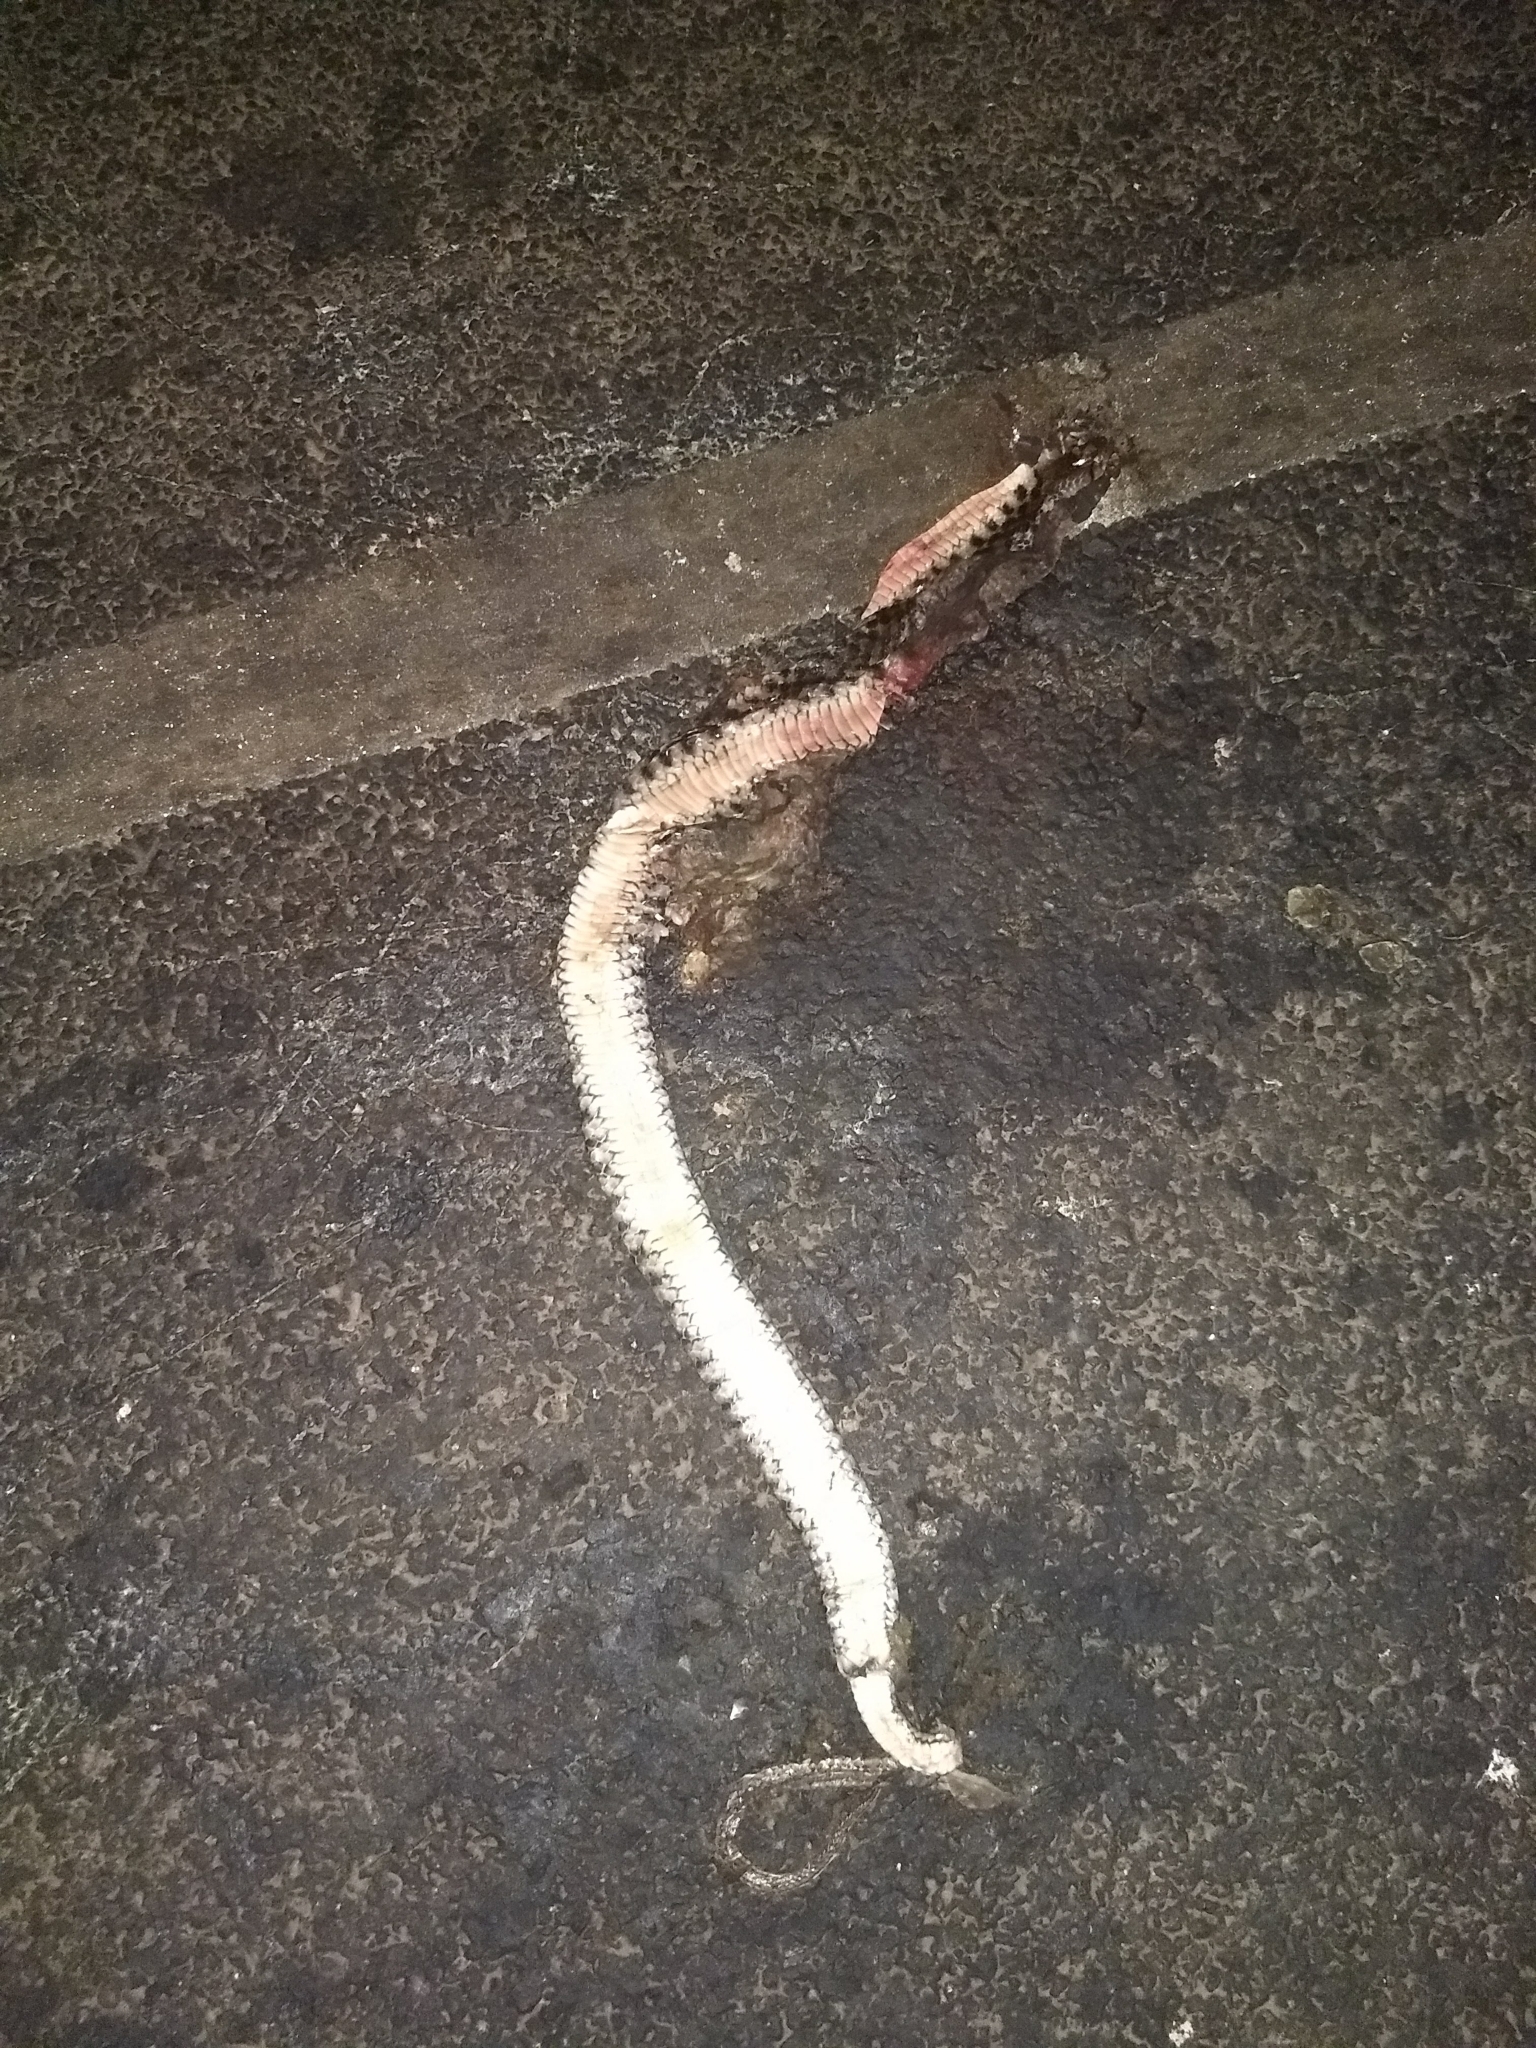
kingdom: Animalia
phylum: Chordata
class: Squamata
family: Colubridae
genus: Fowlea
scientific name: Fowlea piscator
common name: Asiatic water snake
